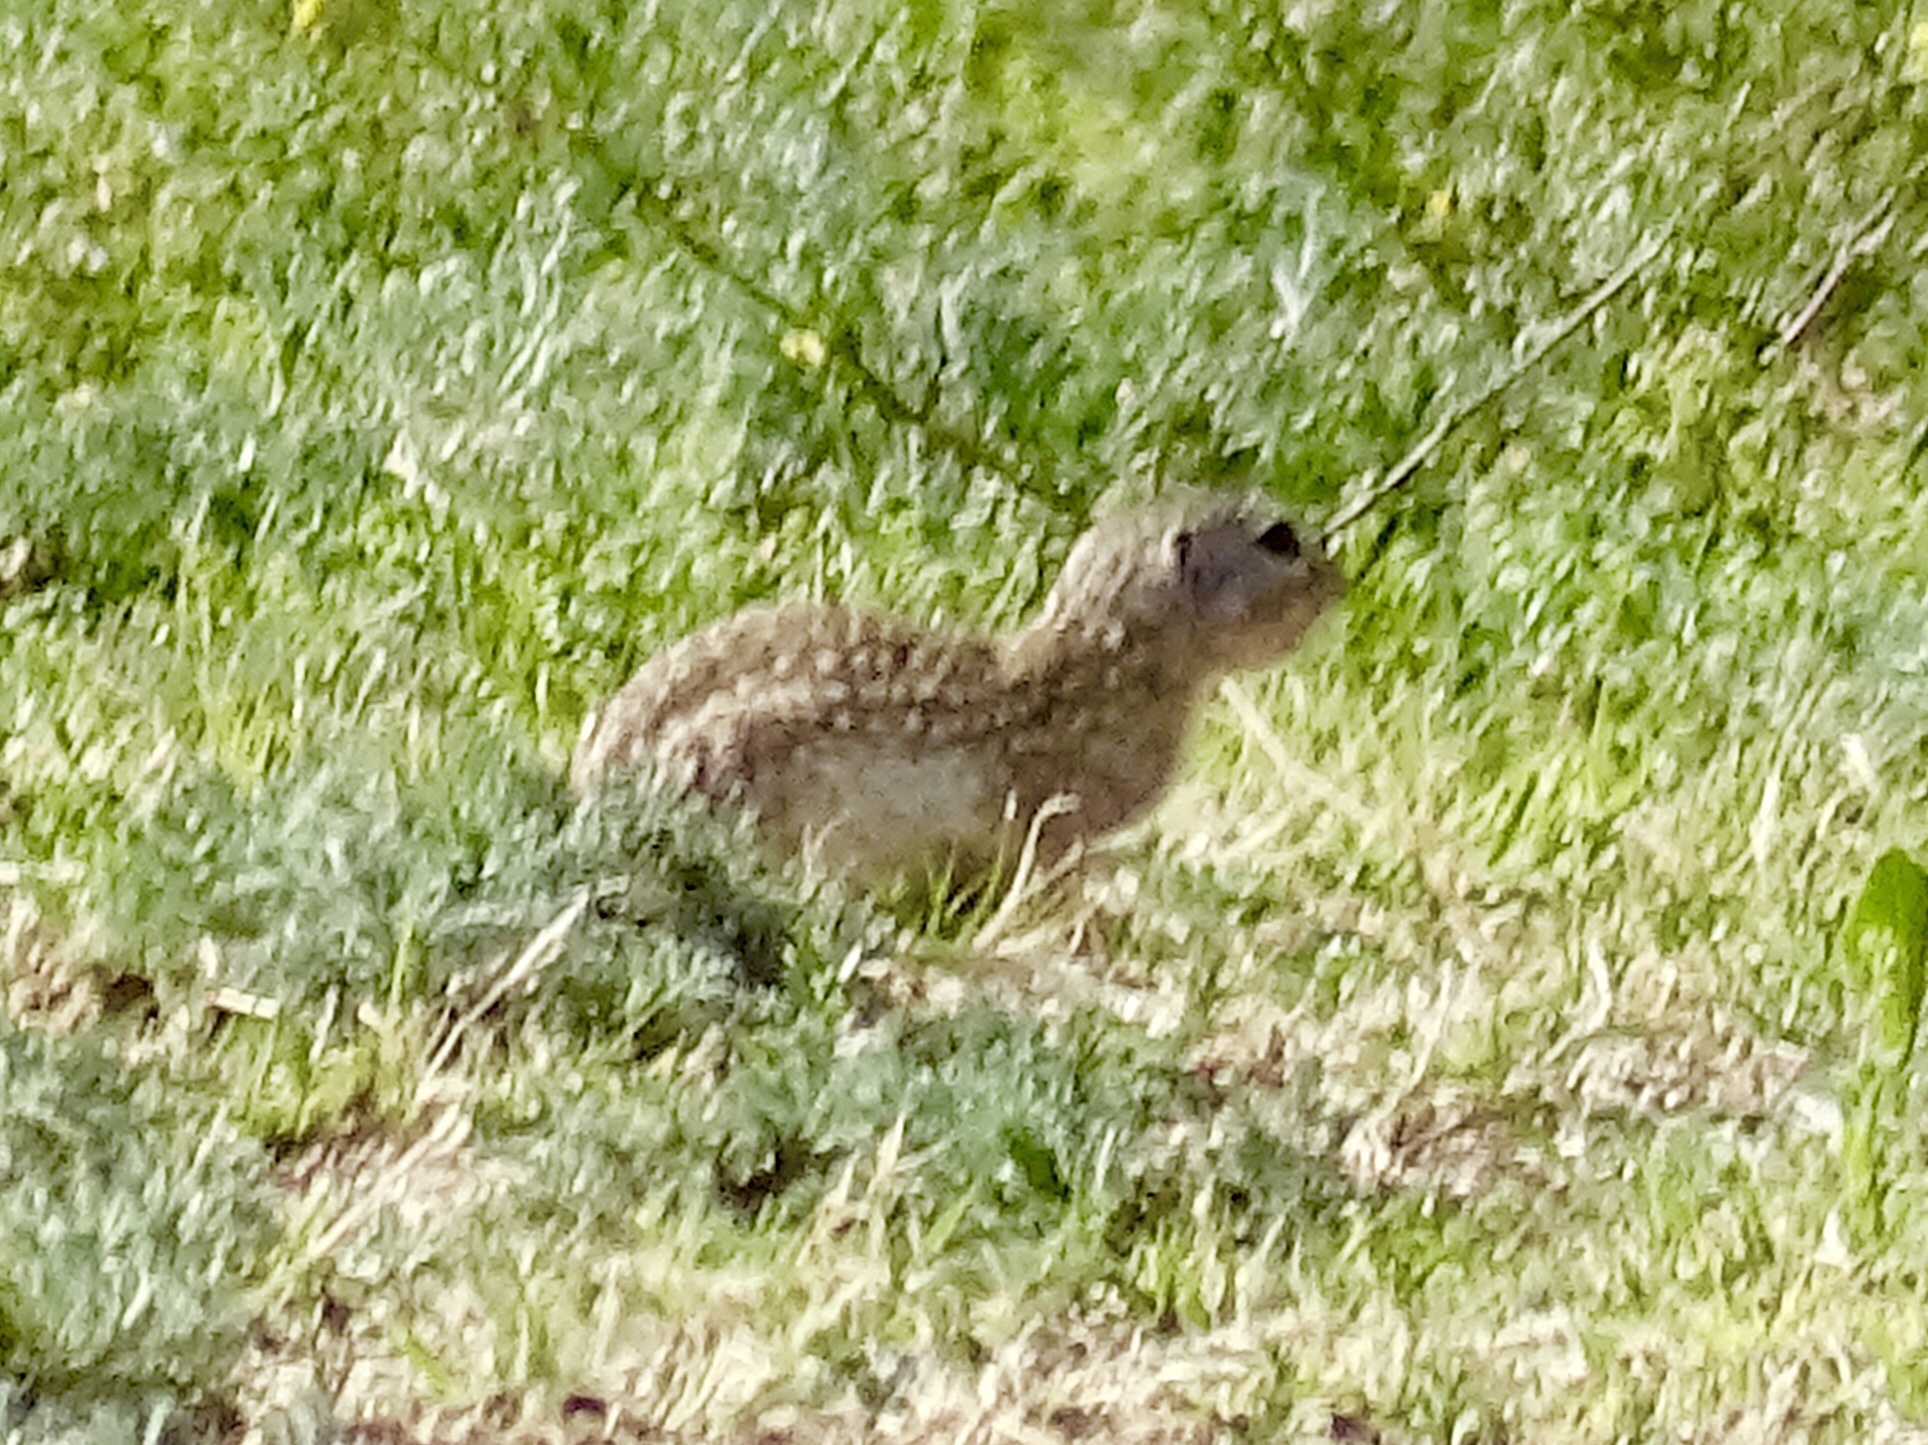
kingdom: Animalia
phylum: Chordata
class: Mammalia
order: Rodentia
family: Sciuridae
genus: Ictidomys
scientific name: Ictidomys parvidens
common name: Rio grande ground squirrel
